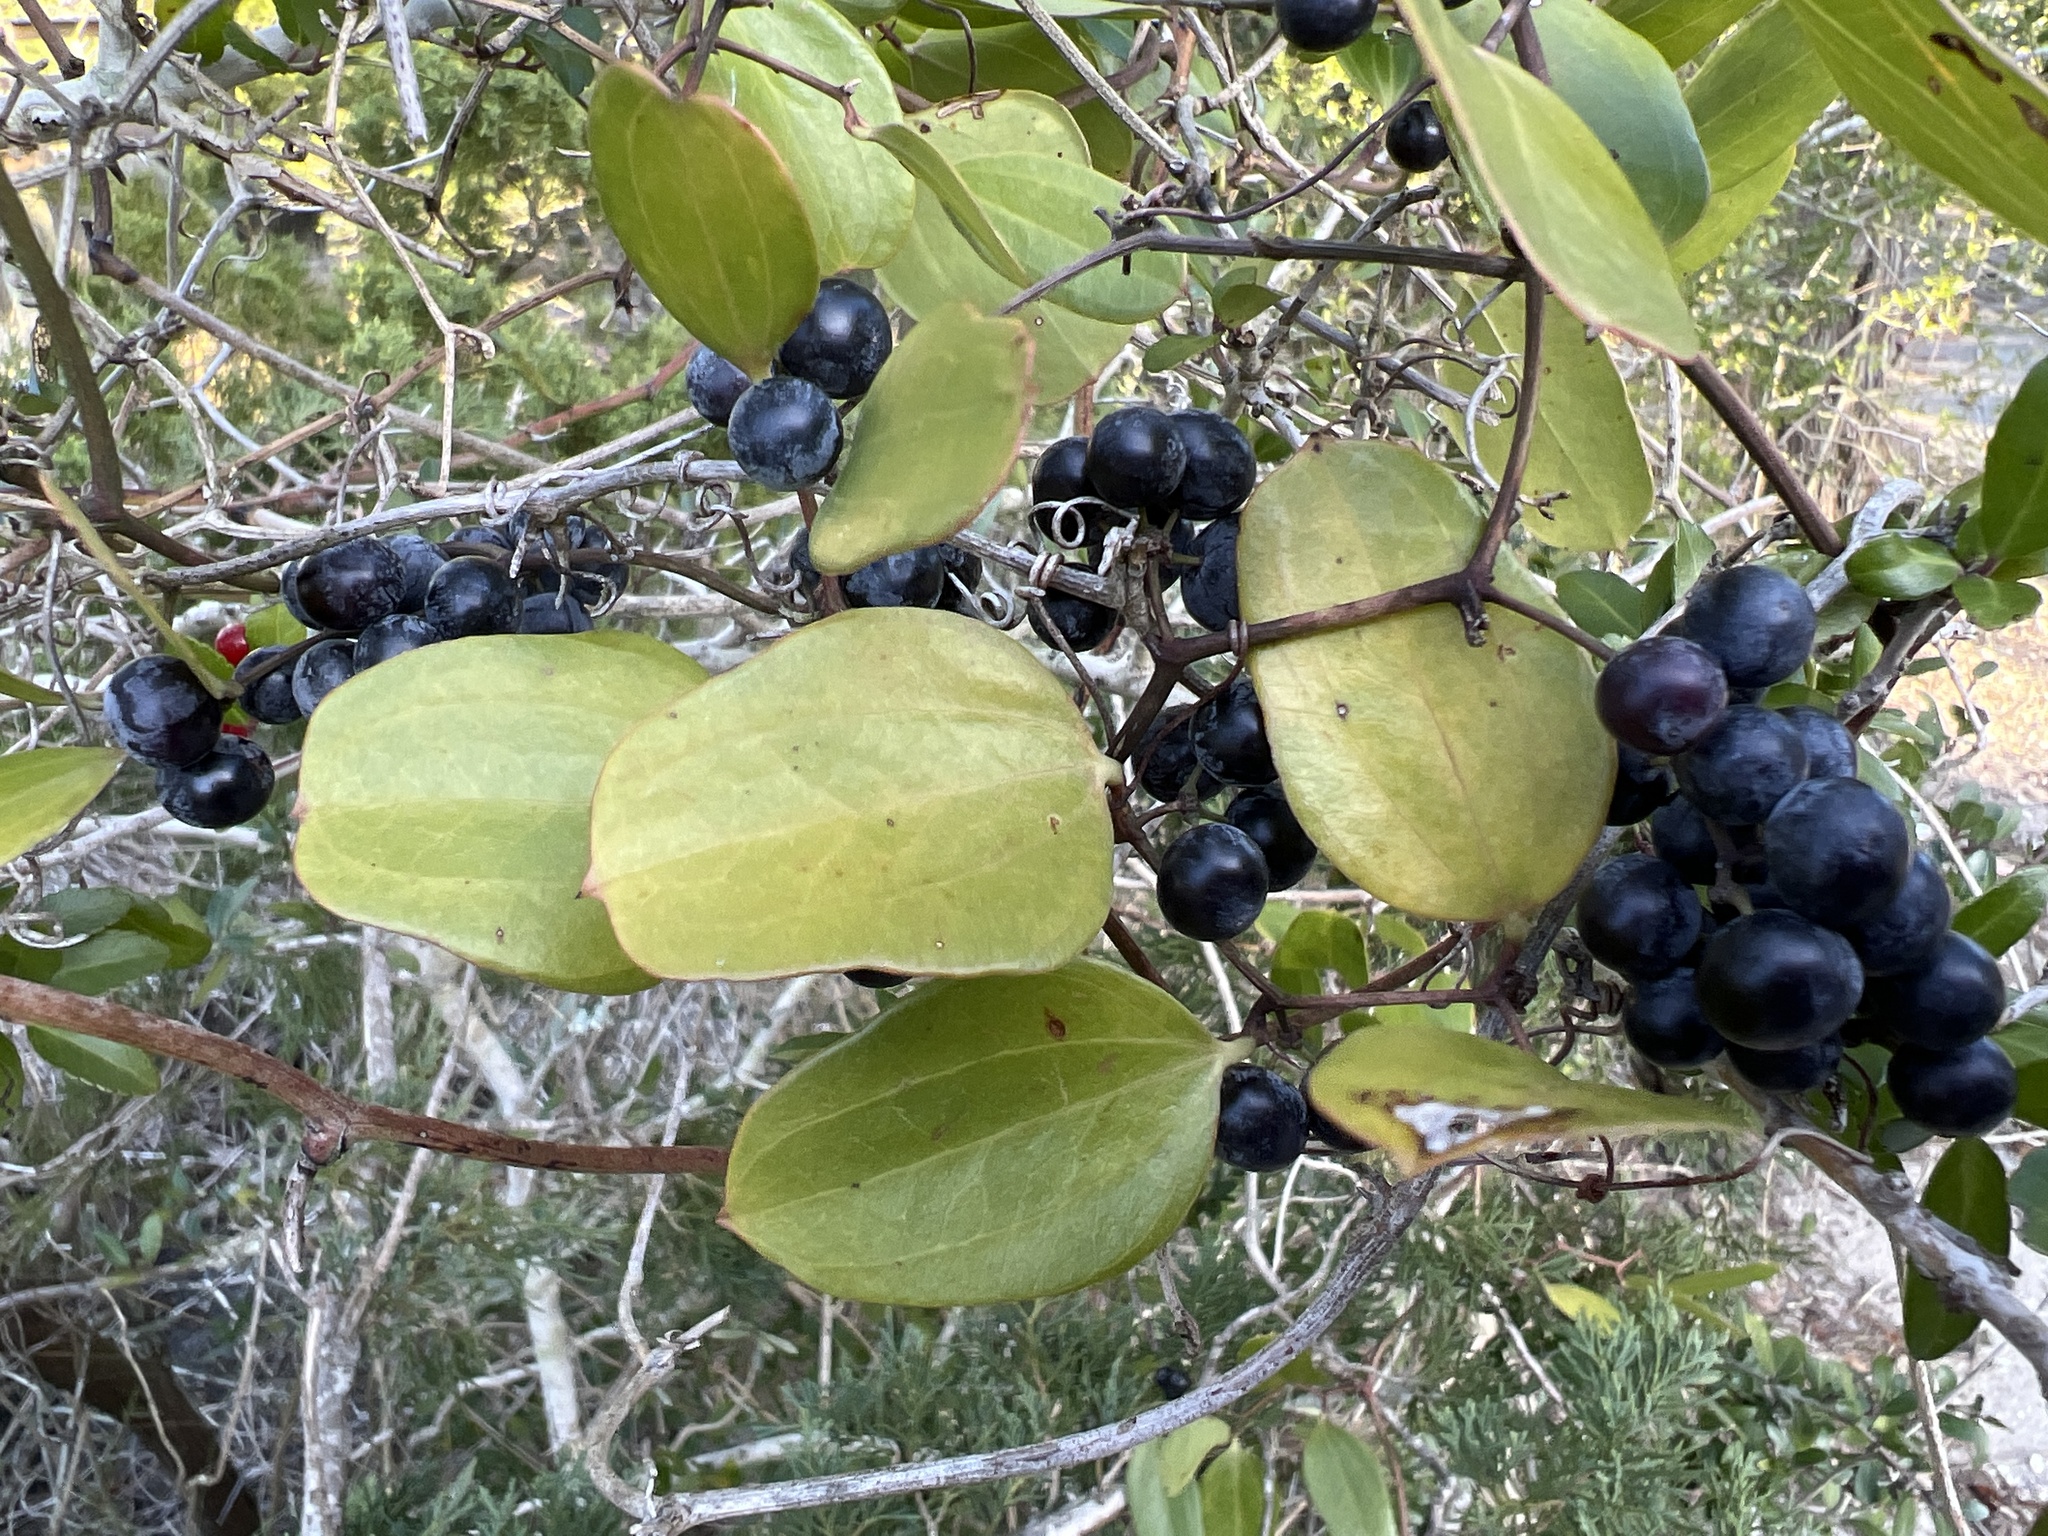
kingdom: Plantae
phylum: Tracheophyta
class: Liliopsida
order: Liliales
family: Smilacaceae
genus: Smilax
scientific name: Smilax auriculata
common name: Wild bamboo
